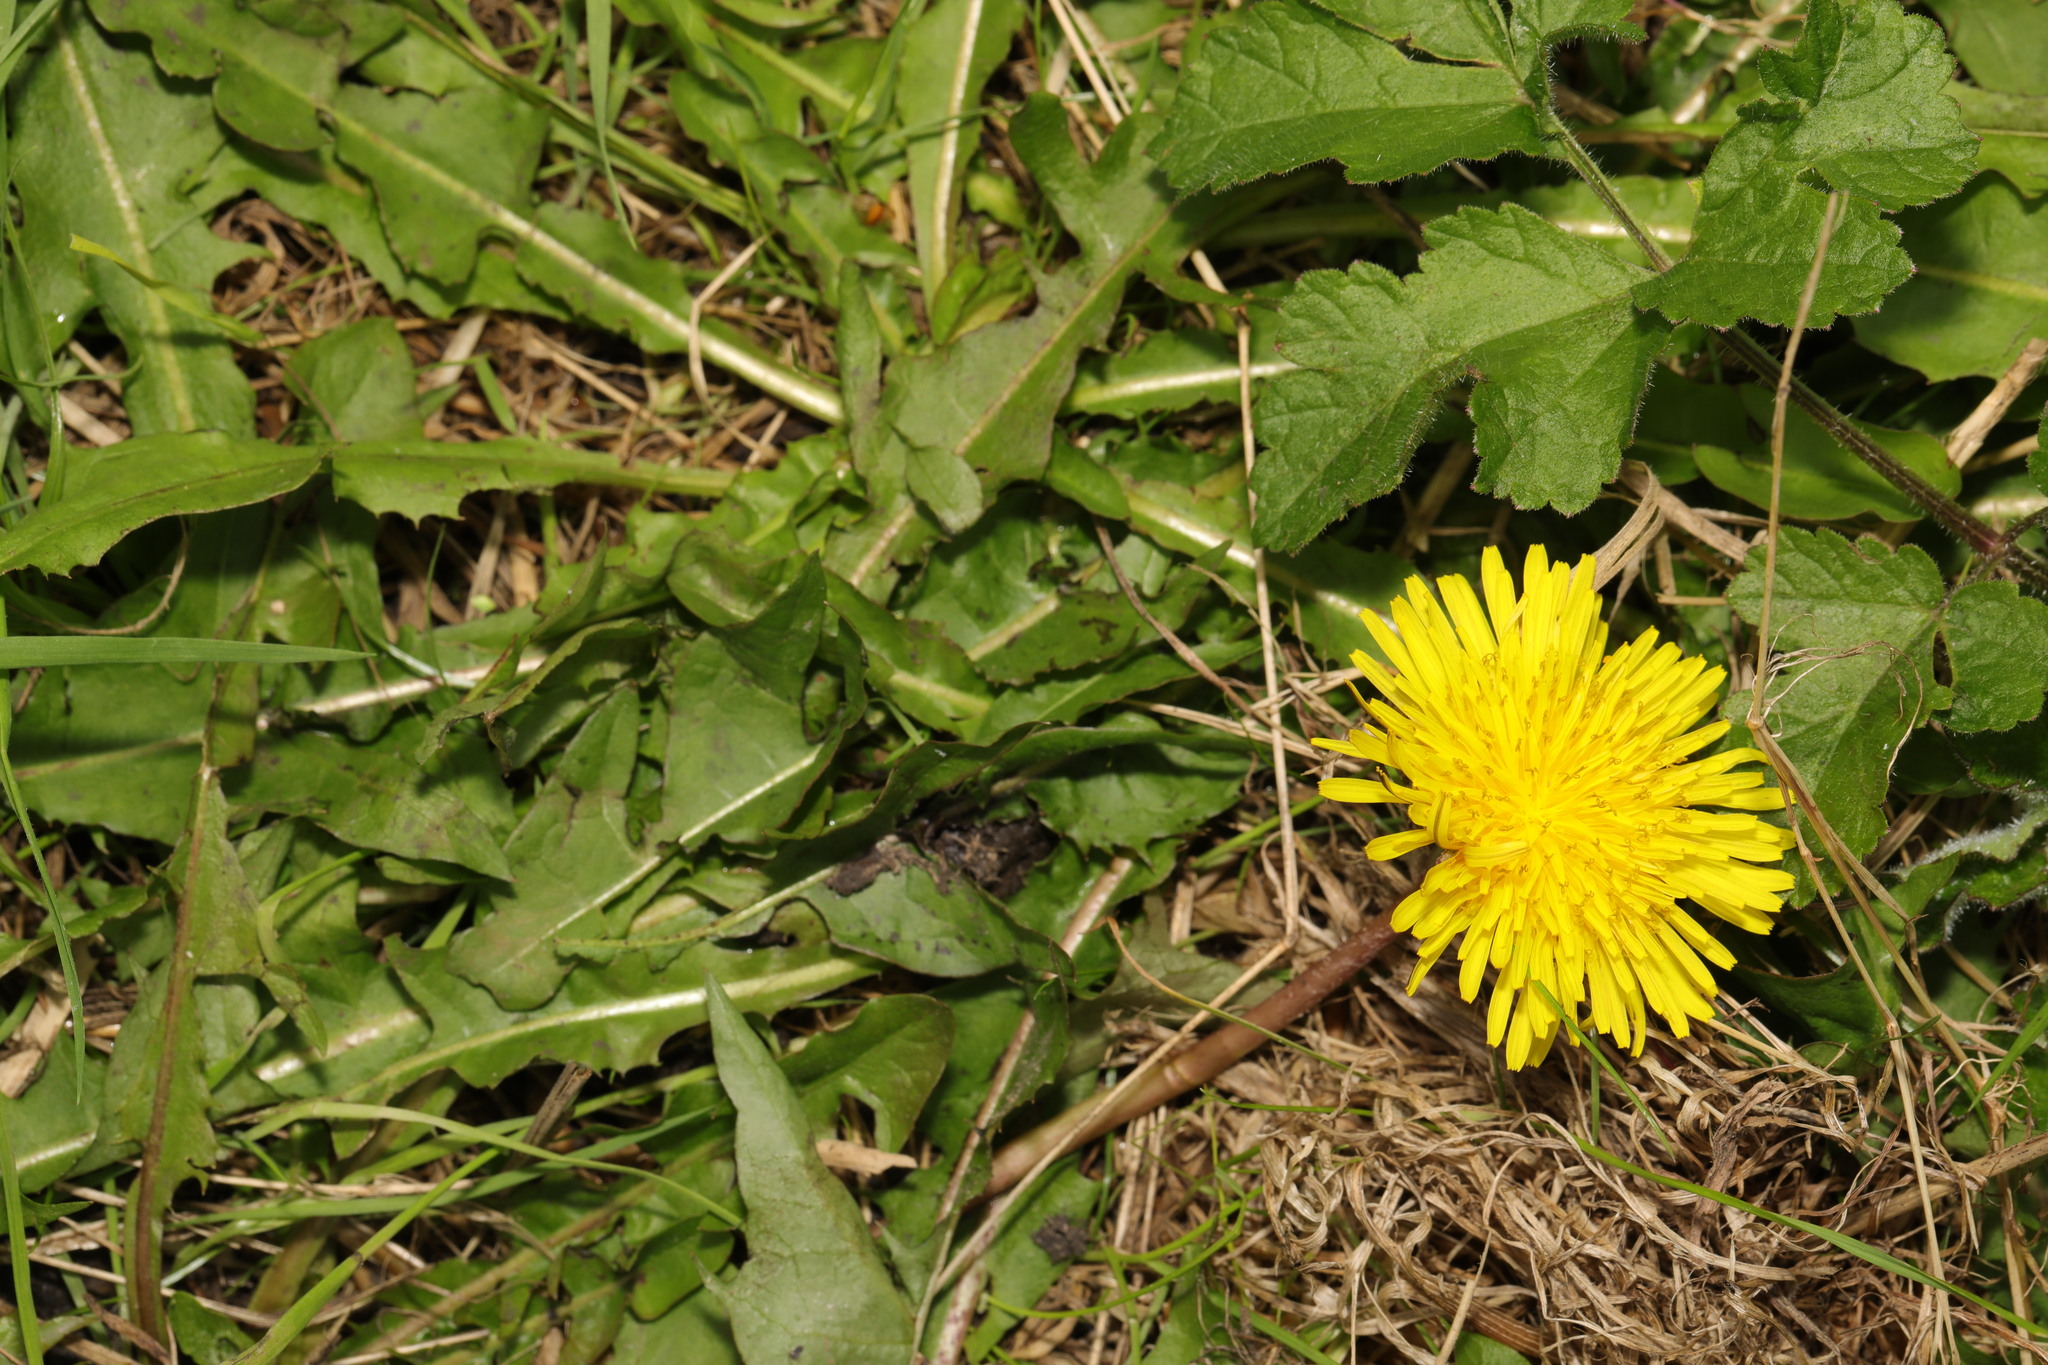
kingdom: Plantae
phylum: Tracheophyta
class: Magnoliopsida
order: Asterales
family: Asteraceae
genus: Taraxacum
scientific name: Taraxacum officinale
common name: Common dandelion
